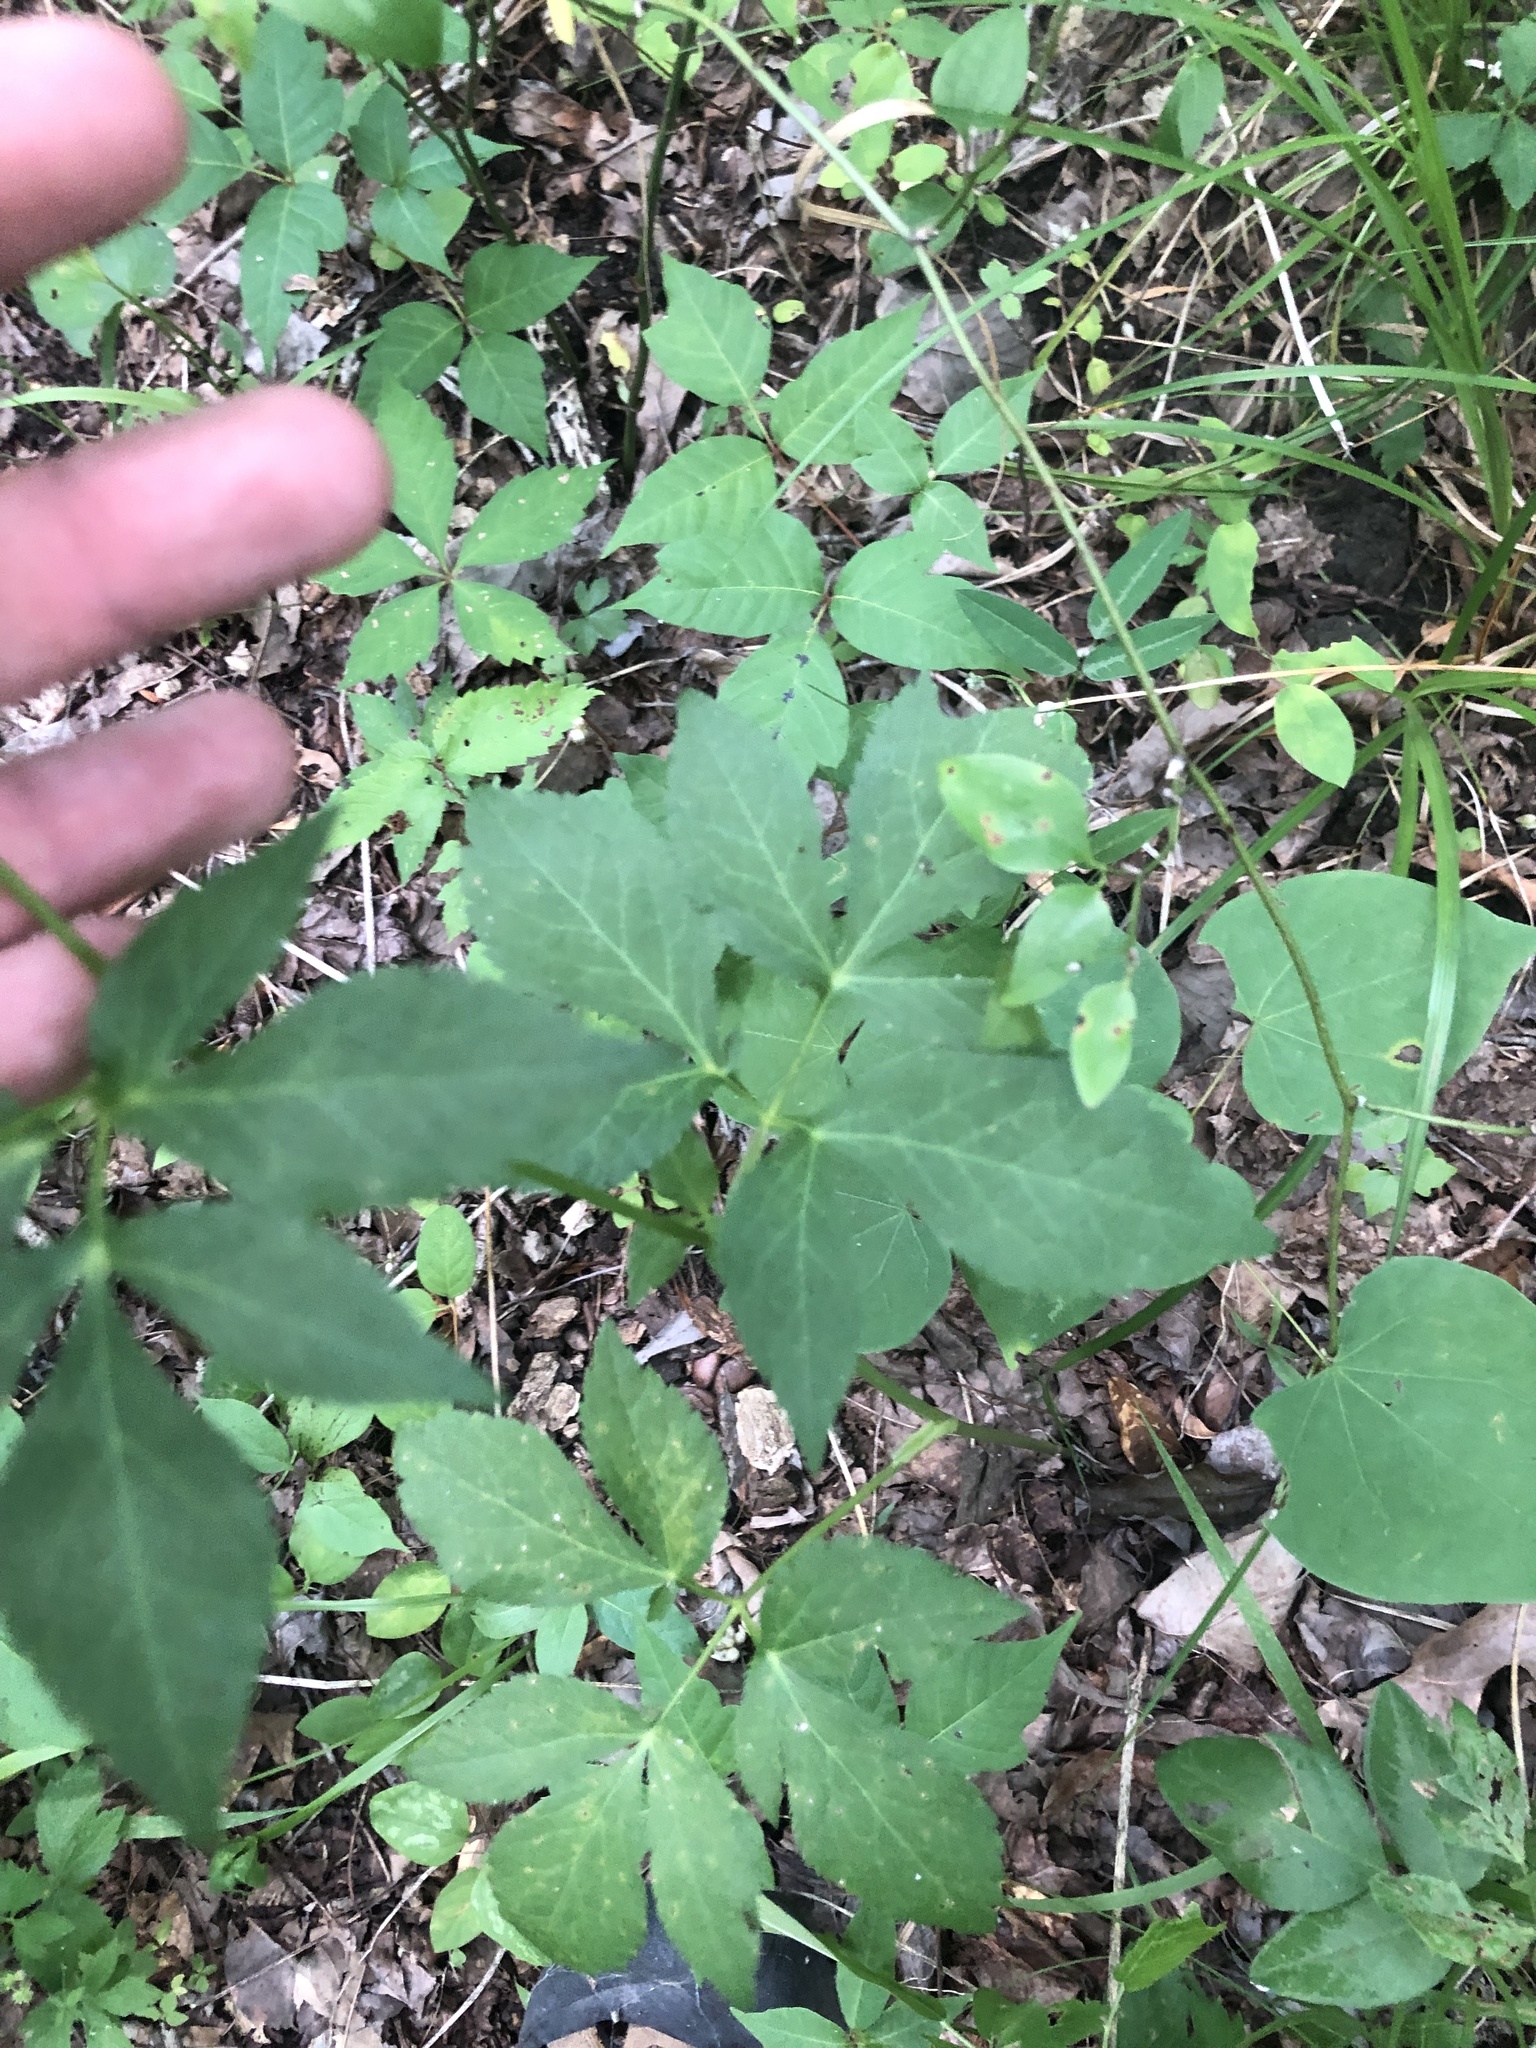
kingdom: Plantae
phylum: Tracheophyta
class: Magnoliopsida
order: Apiales
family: Apiaceae
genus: Cryptotaenia
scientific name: Cryptotaenia canadensis
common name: Honewort
